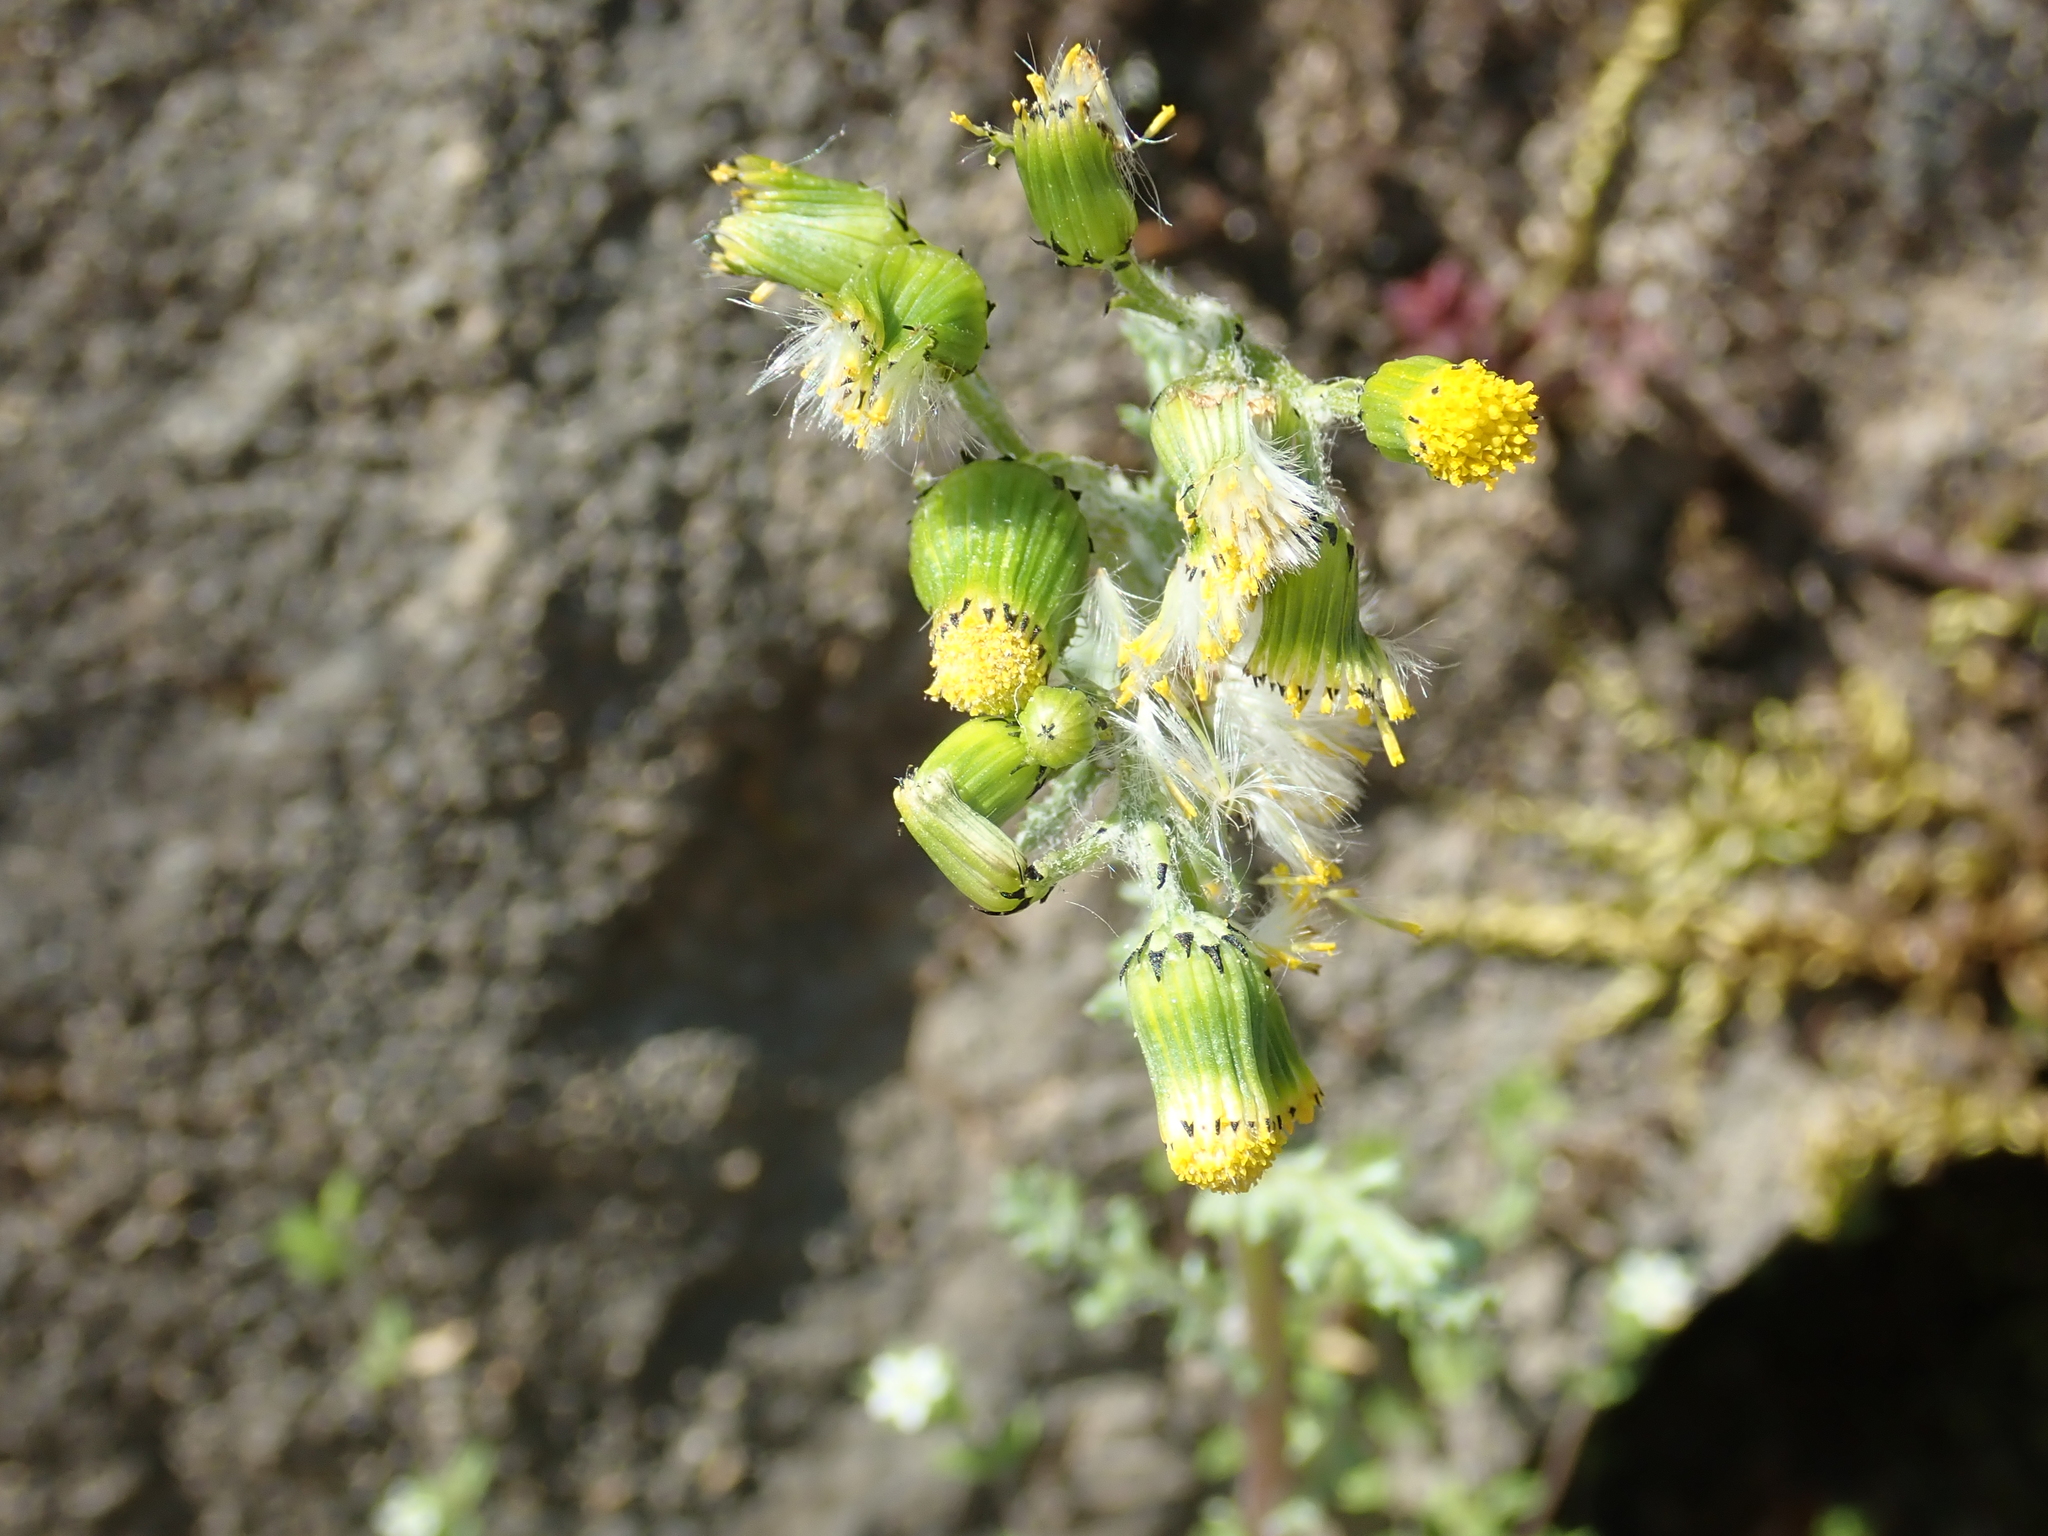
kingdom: Plantae
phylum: Tracheophyta
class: Magnoliopsida
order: Asterales
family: Asteraceae
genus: Senecio
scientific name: Senecio vulgaris
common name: Old-man-in-the-spring
